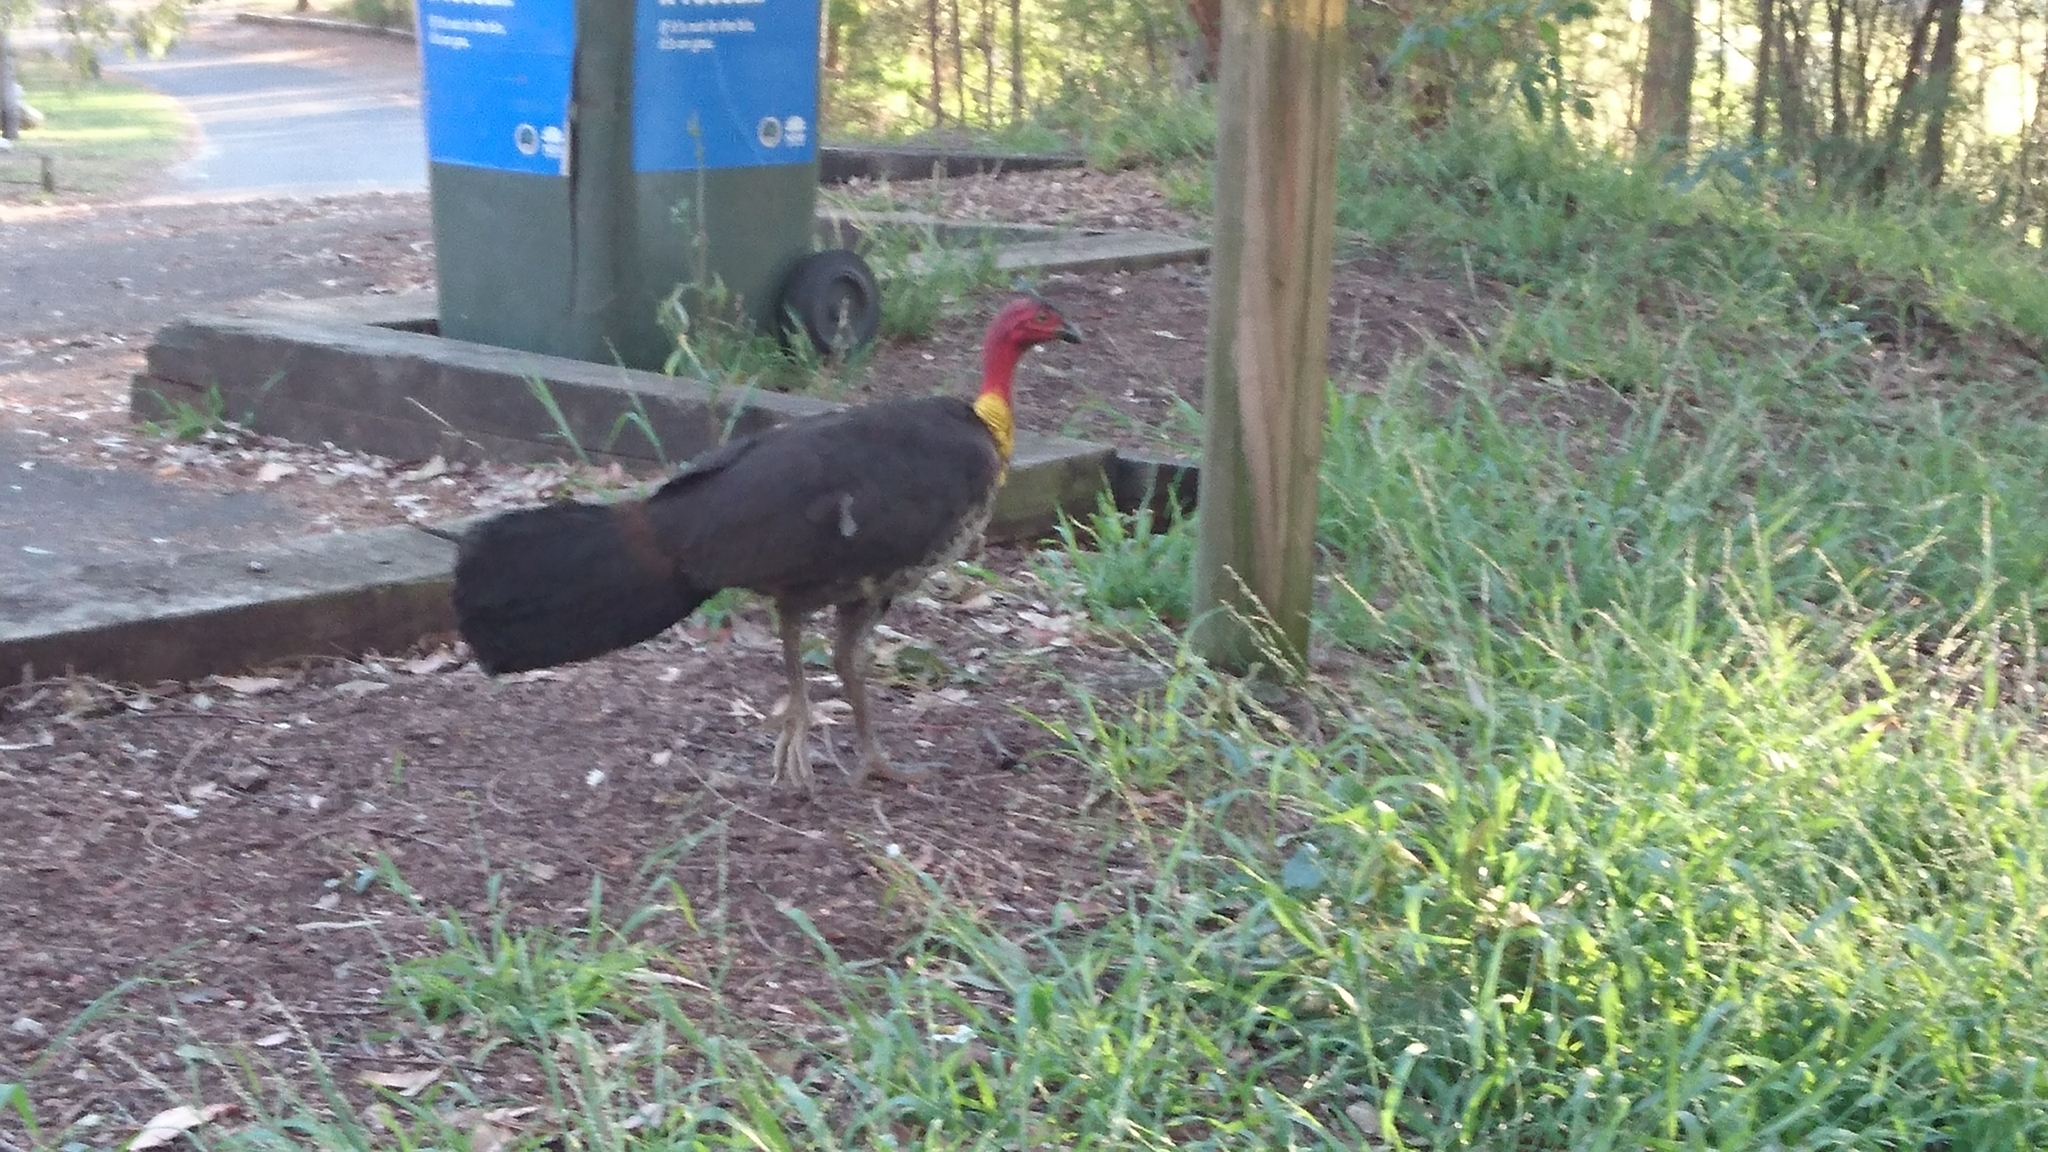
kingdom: Animalia
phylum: Chordata
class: Aves
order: Galliformes
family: Megapodiidae
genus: Alectura
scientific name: Alectura lathami
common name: Australian brushturkey
